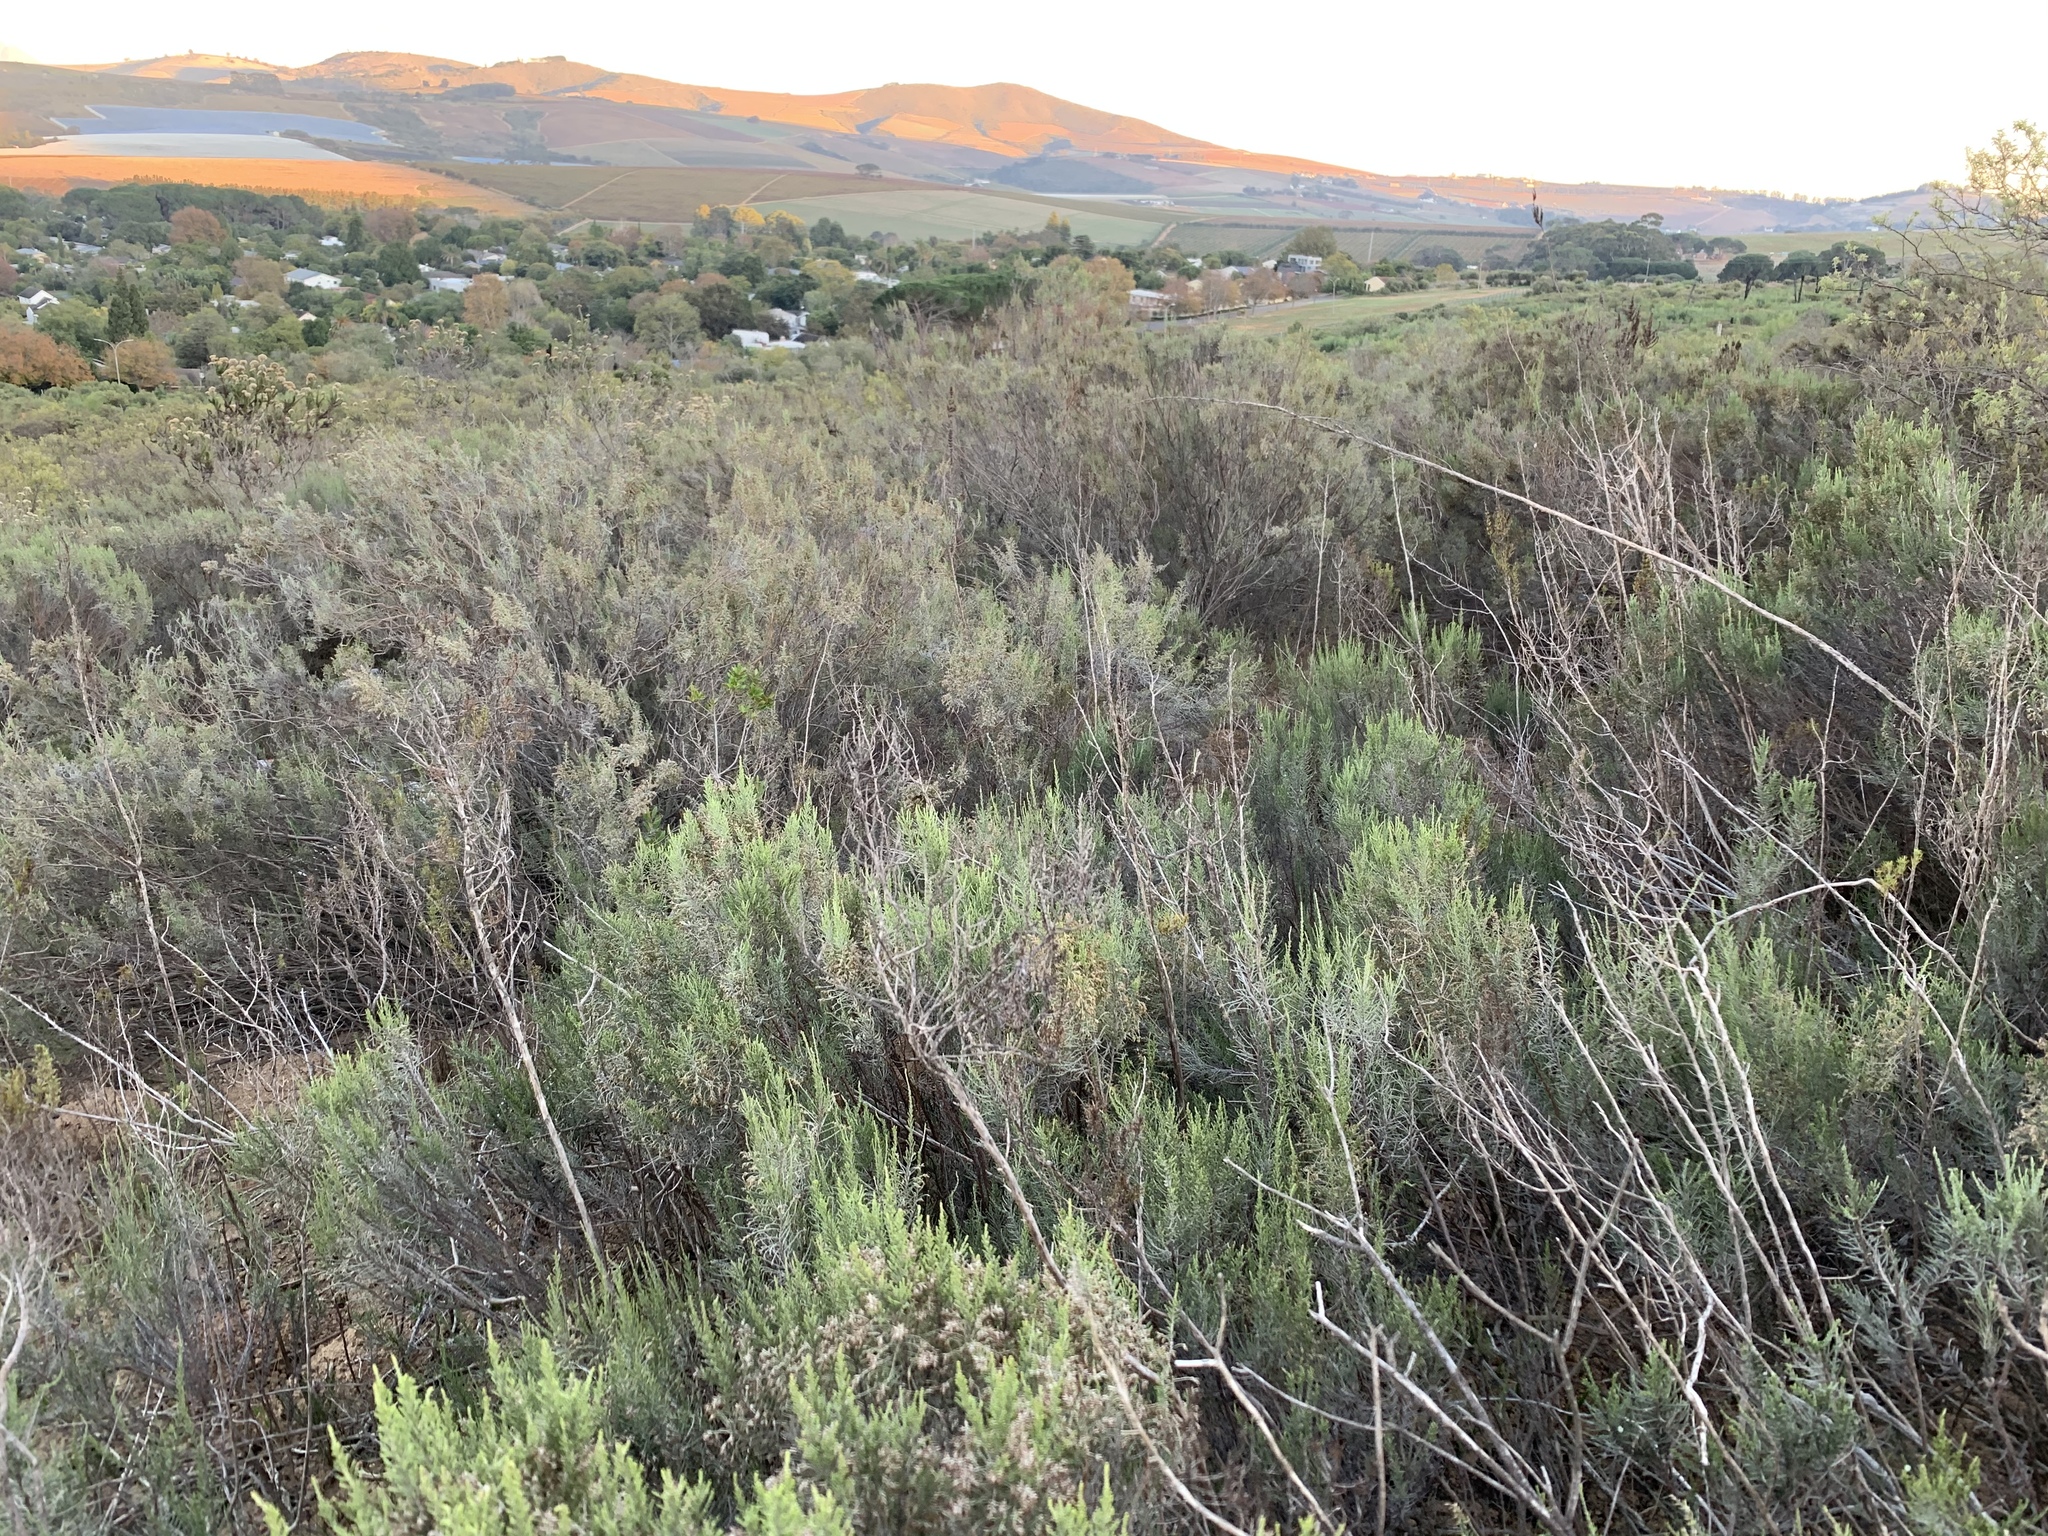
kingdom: Plantae
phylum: Tracheophyta
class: Magnoliopsida
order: Asterales
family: Asteraceae
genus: Dicerothamnus
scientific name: Dicerothamnus rhinocerotis
